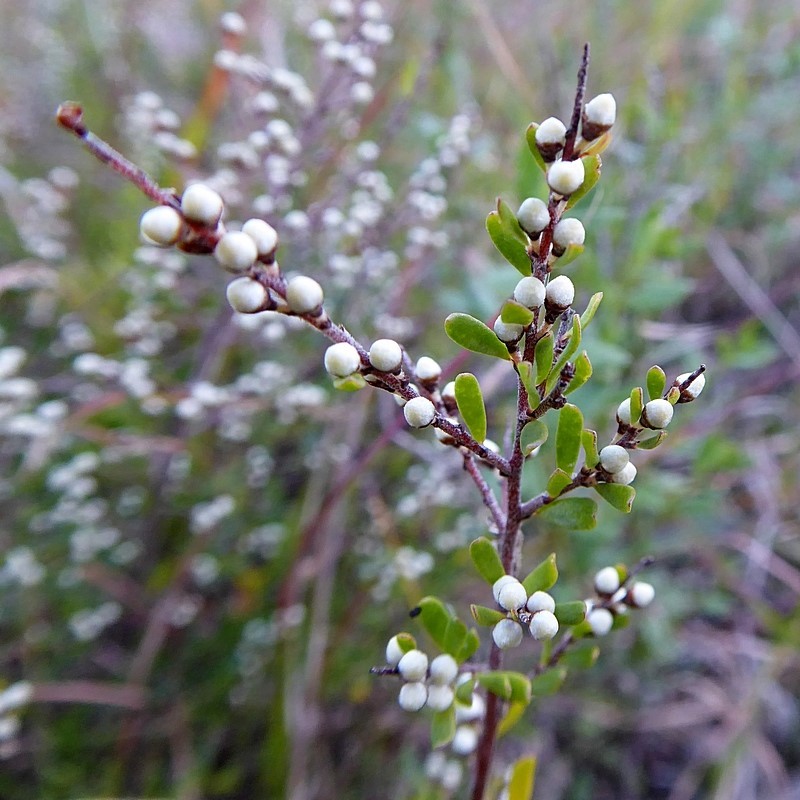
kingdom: Plantae
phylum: Tracheophyta
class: Magnoliopsida
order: Rosales
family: Rhamnaceae
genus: Cryptandra
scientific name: Cryptandra amara
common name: Bitter cryptandra
